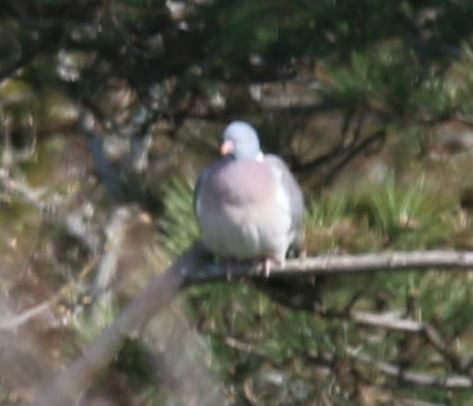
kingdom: Animalia
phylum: Chordata
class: Aves
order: Columbiformes
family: Columbidae
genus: Columba
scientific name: Columba palumbus
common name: Common wood pigeon
